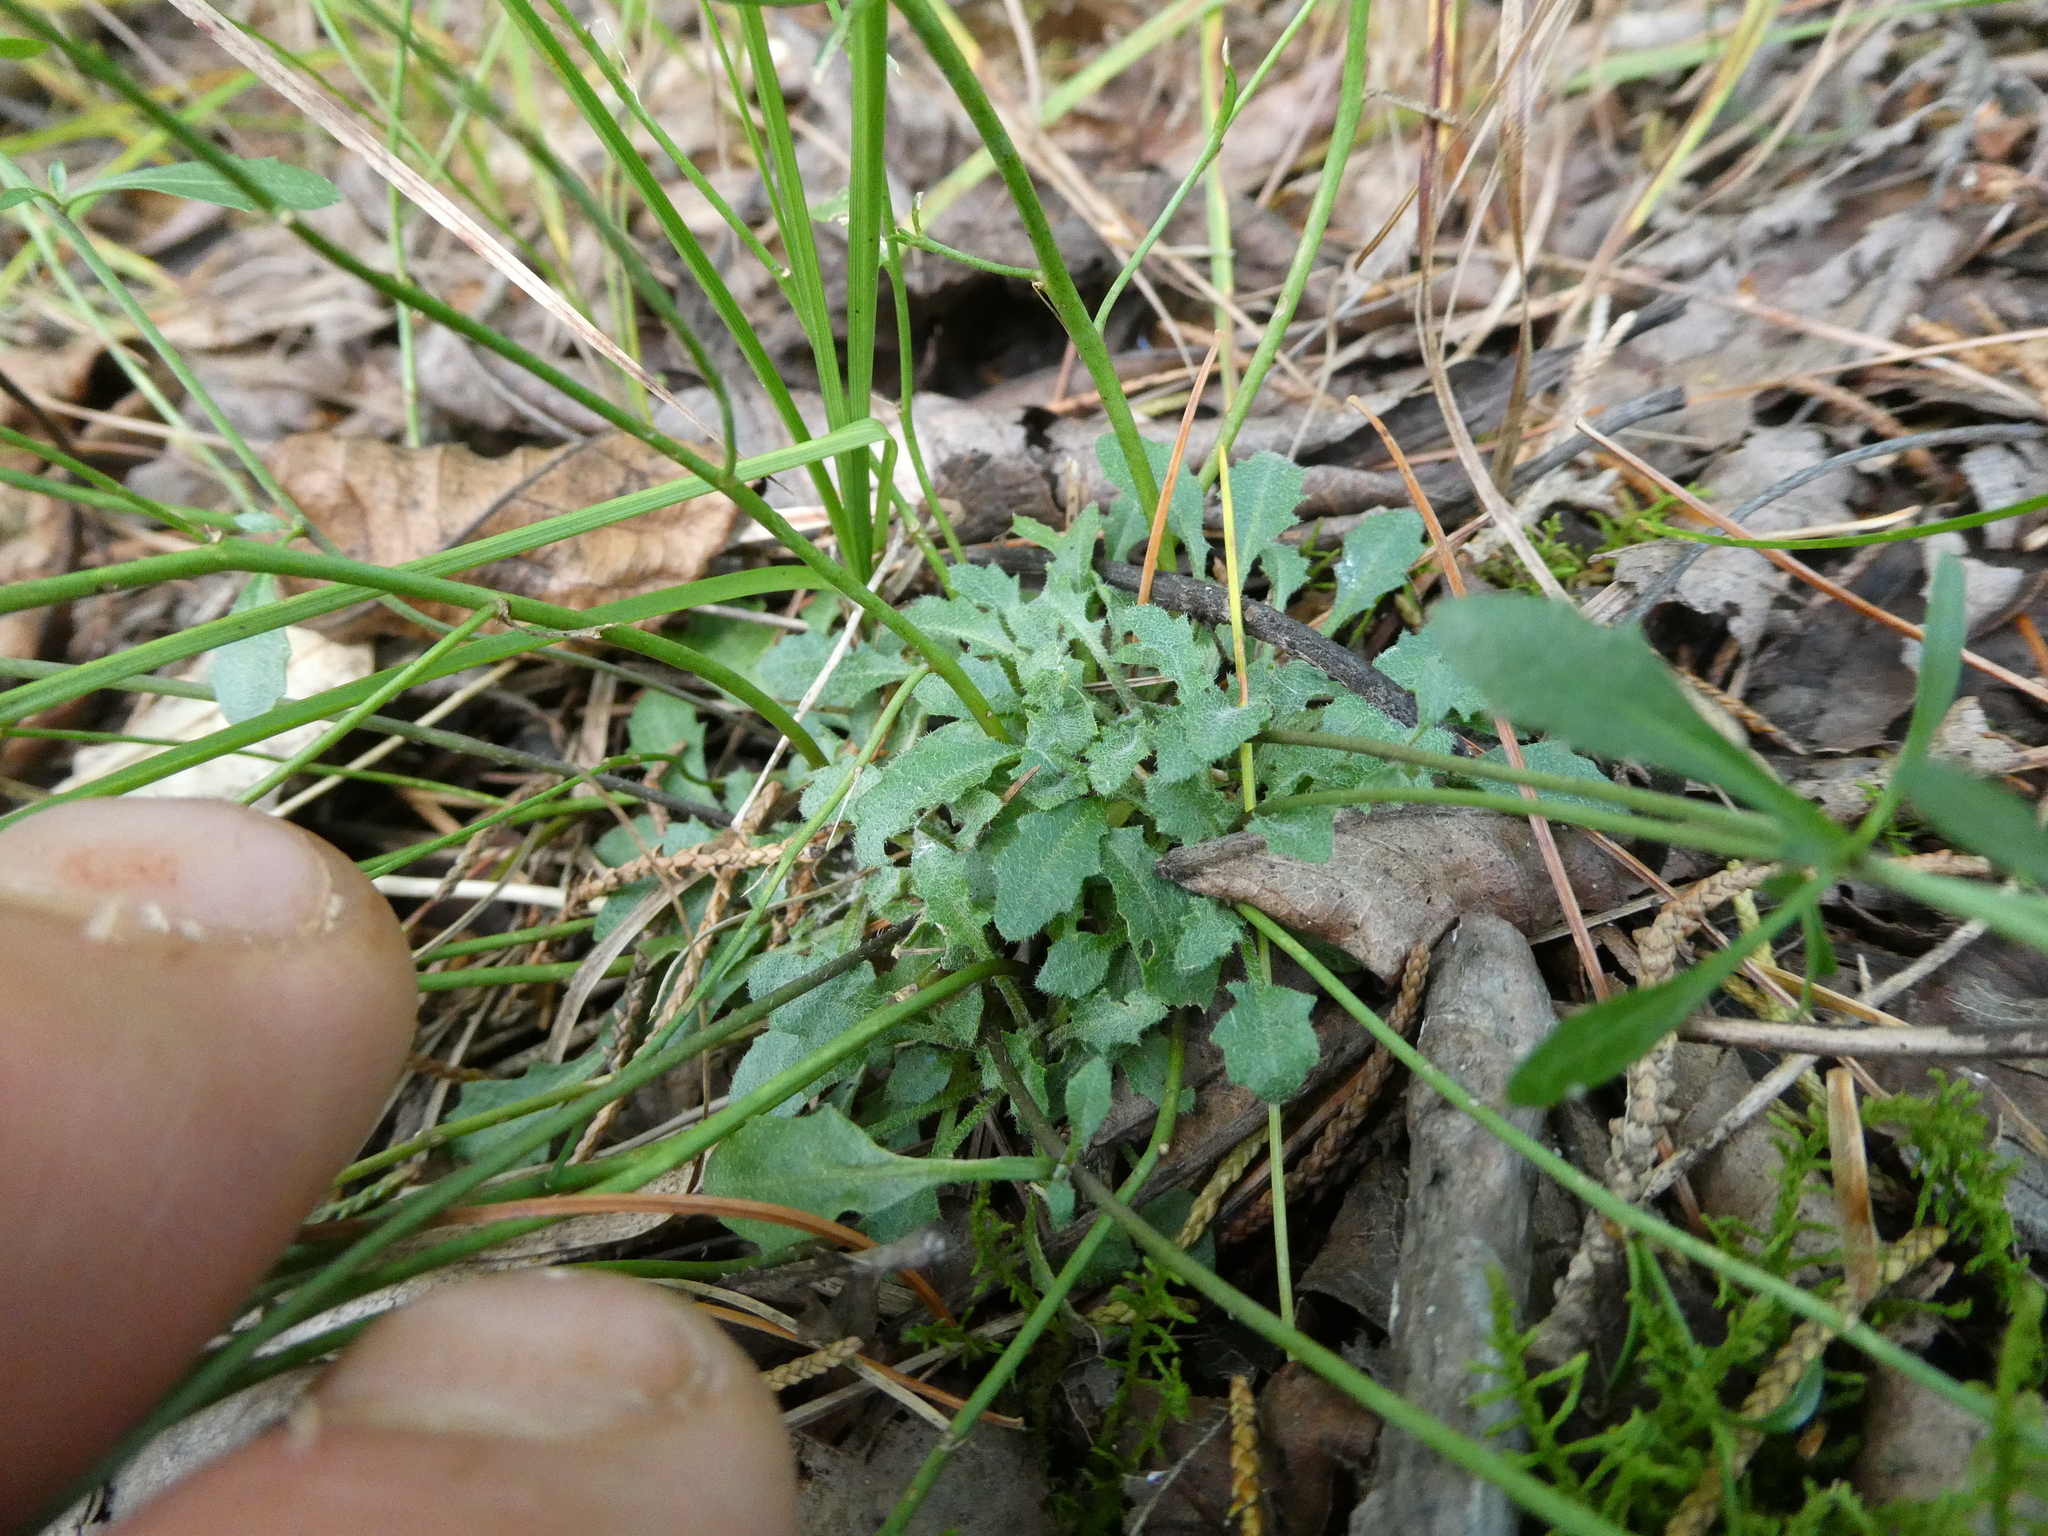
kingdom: Plantae
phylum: Tracheophyta
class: Magnoliopsida
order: Brassicales
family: Brassicaceae
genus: Arabidopsis
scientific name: Arabidopsis lyrata
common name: Lyrate rockcress
